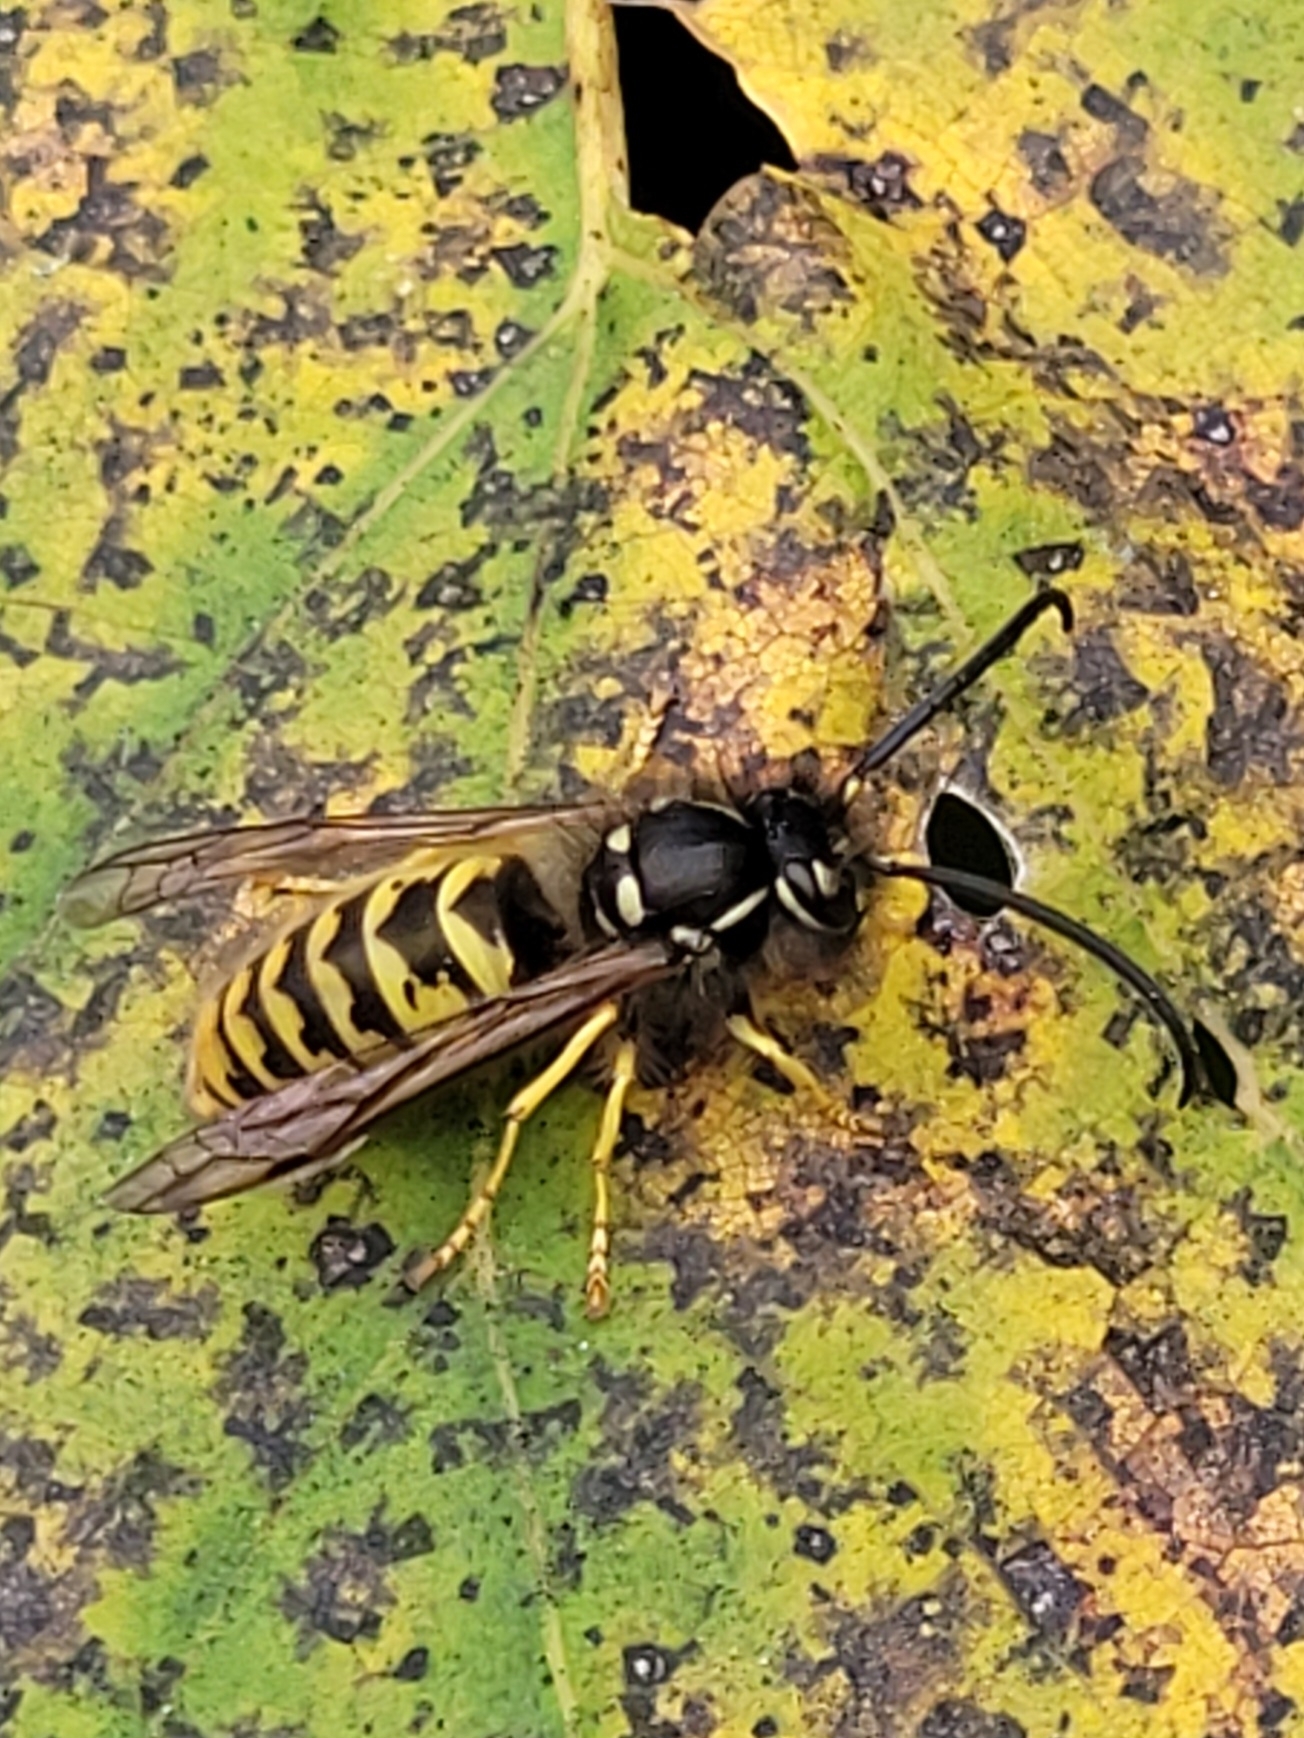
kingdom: Animalia
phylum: Arthropoda
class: Insecta
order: Hymenoptera
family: Vespidae
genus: Vespula
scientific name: Vespula vulgaris
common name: Common wasp
